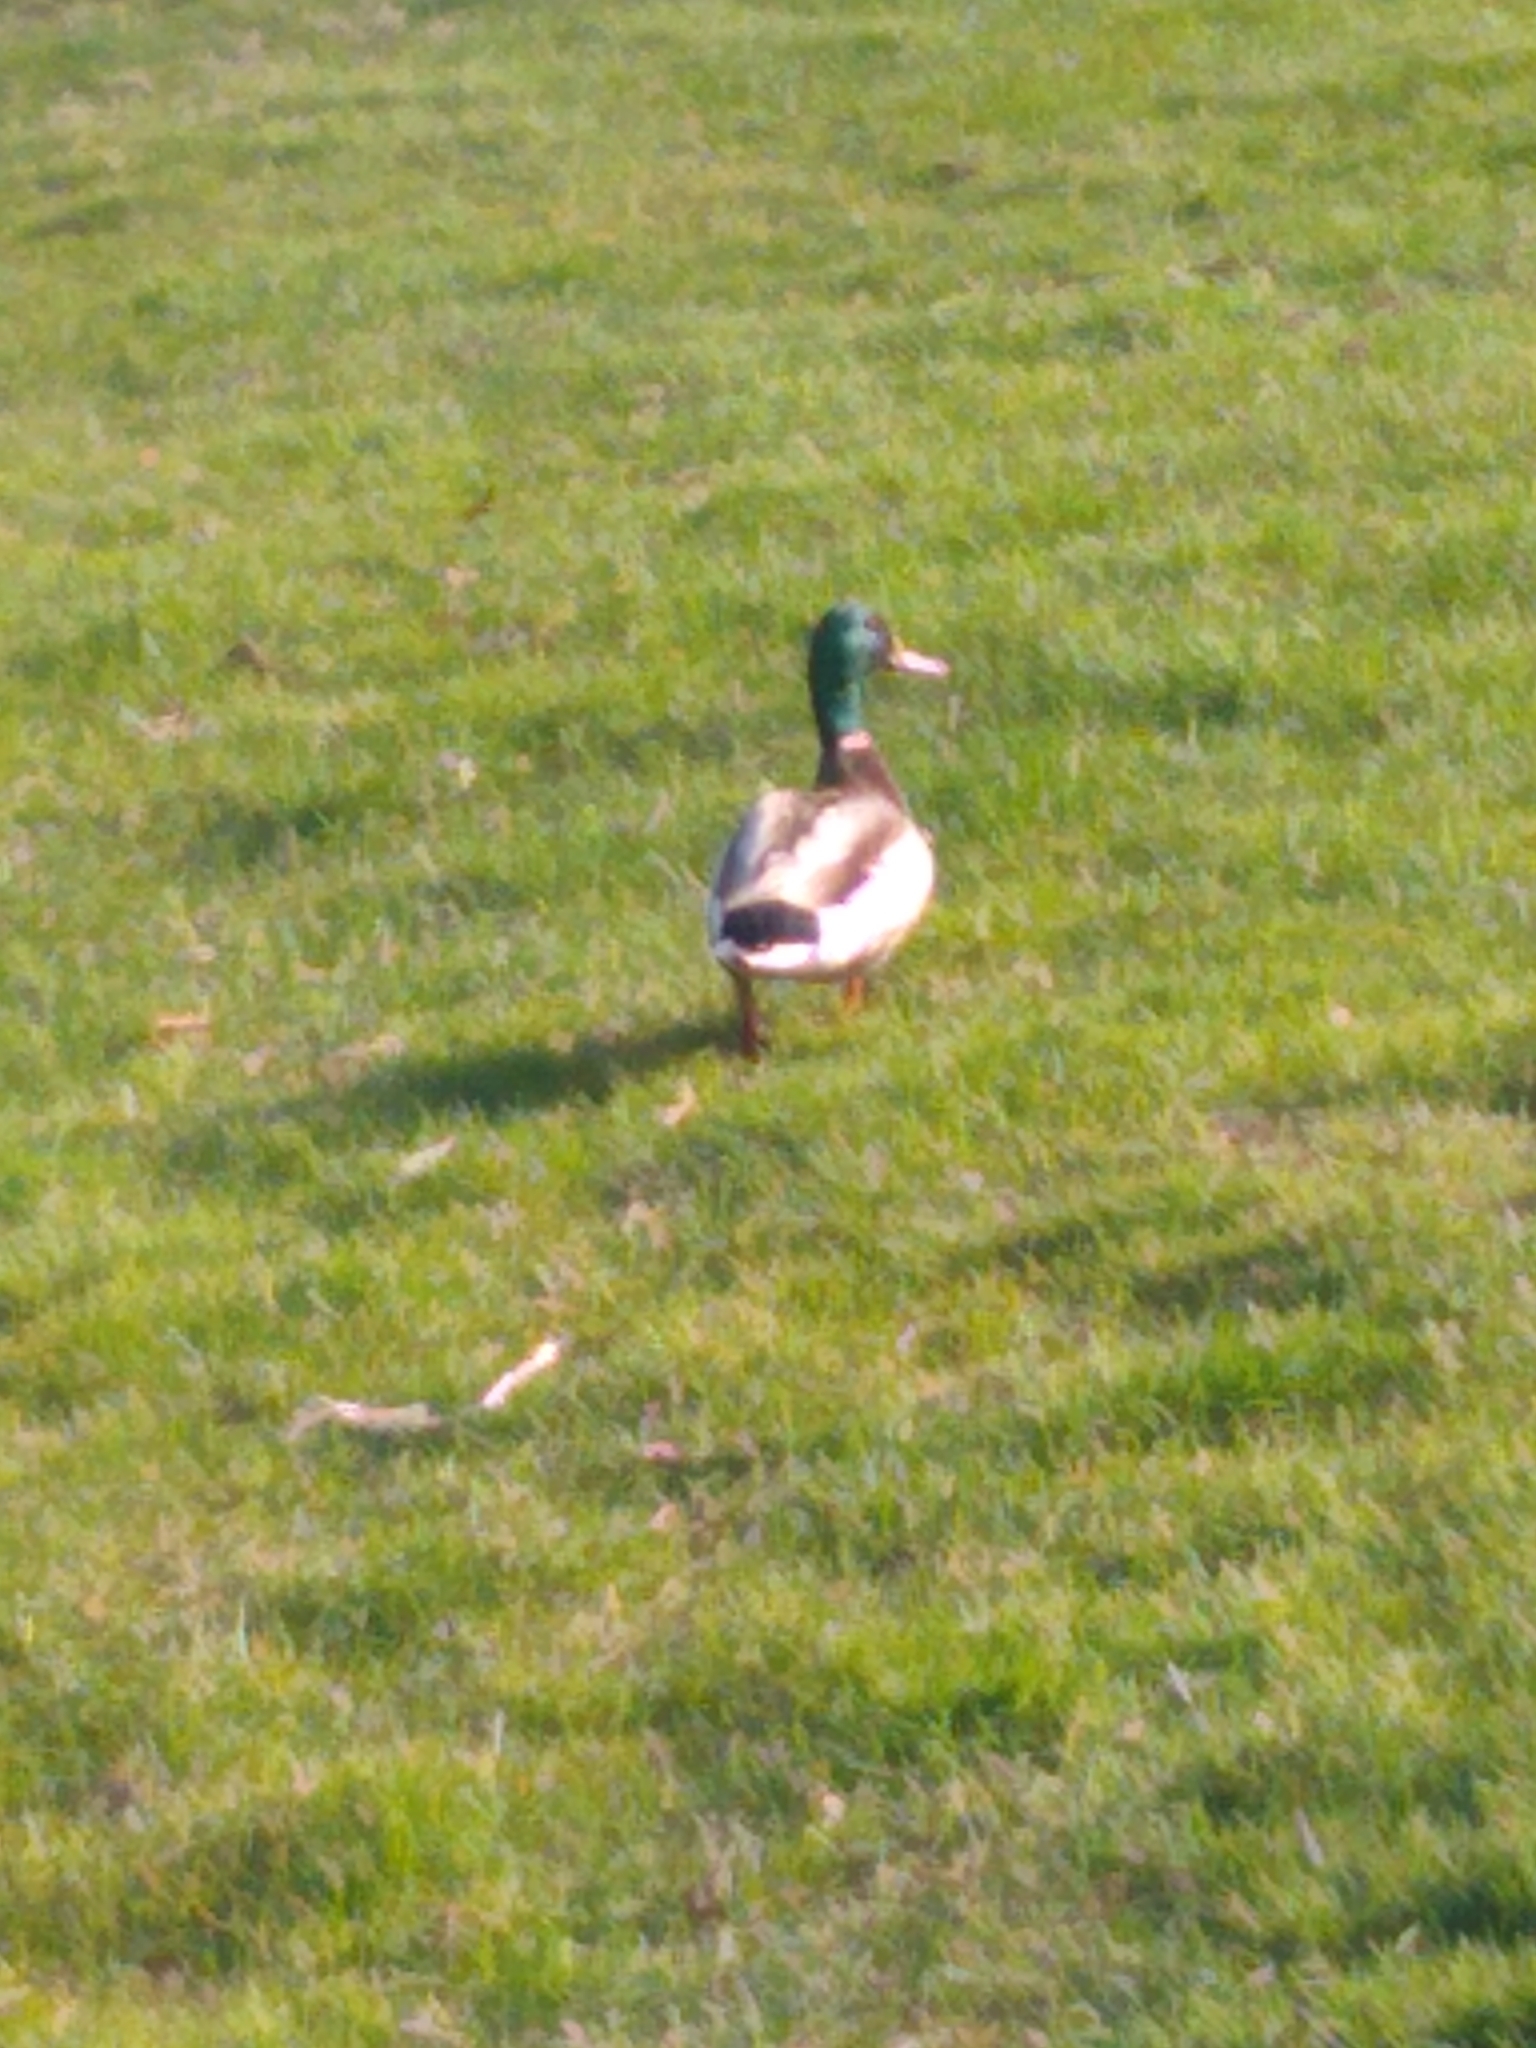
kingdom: Animalia
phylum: Chordata
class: Aves
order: Anseriformes
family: Anatidae
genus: Anas
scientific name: Anas platyrhynchos
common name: Mallard
